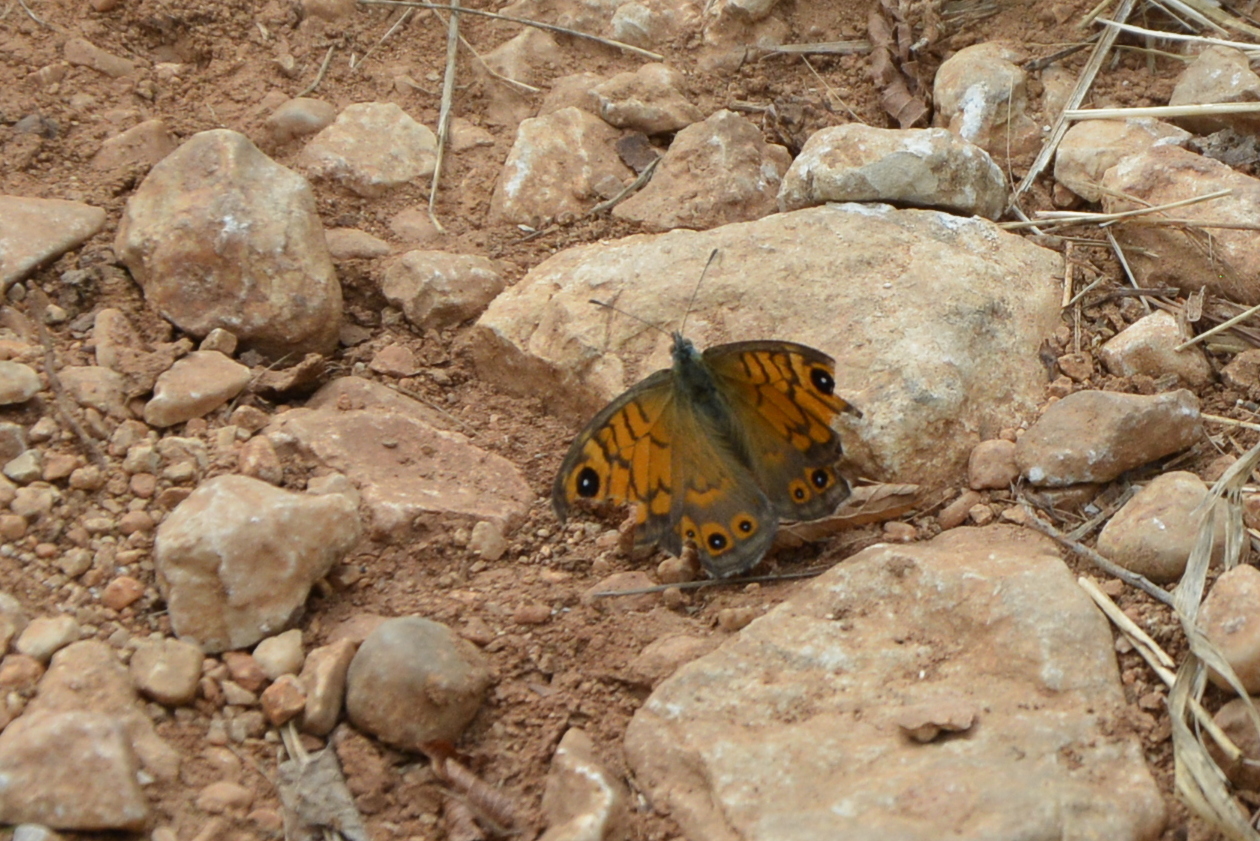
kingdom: Animalia
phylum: Arthropoda
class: Insecta
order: Lepidoptera
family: Nymphalidae
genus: Pararge
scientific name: Pararge Lasiommata megera
